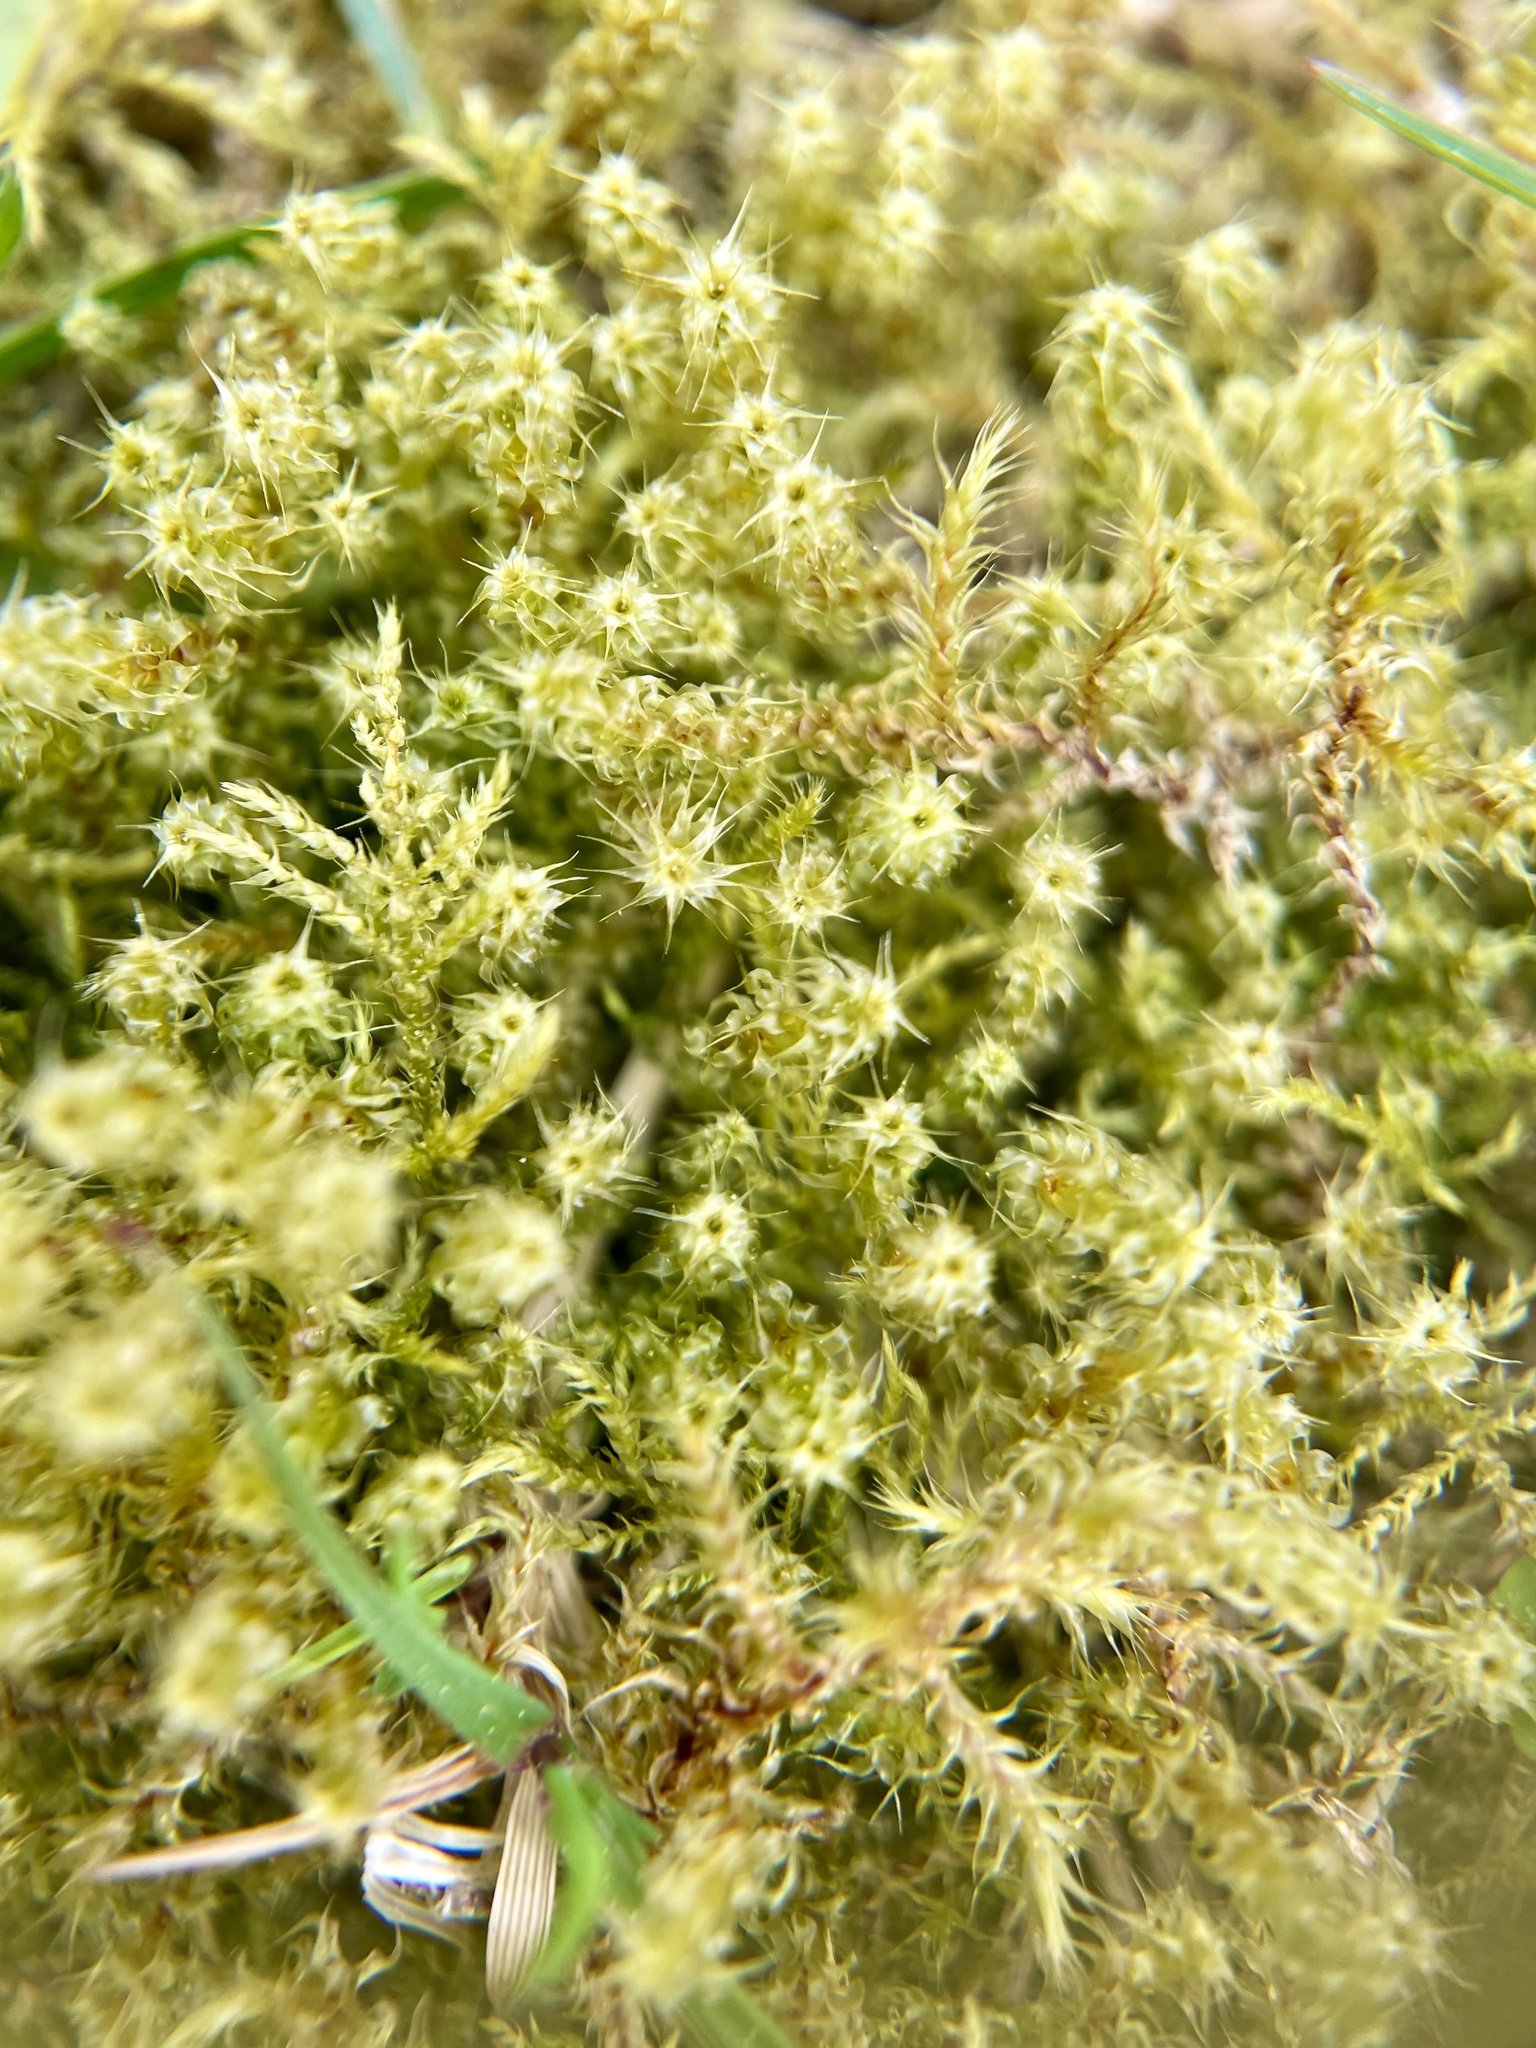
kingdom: Plantae
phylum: Bryophyta
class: Bryopsida
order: Hypnales
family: Hylocomiaceae
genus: Rhytidiadelphus
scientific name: Rhytidiadelphus squarrosus
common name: Springy turf-moss
